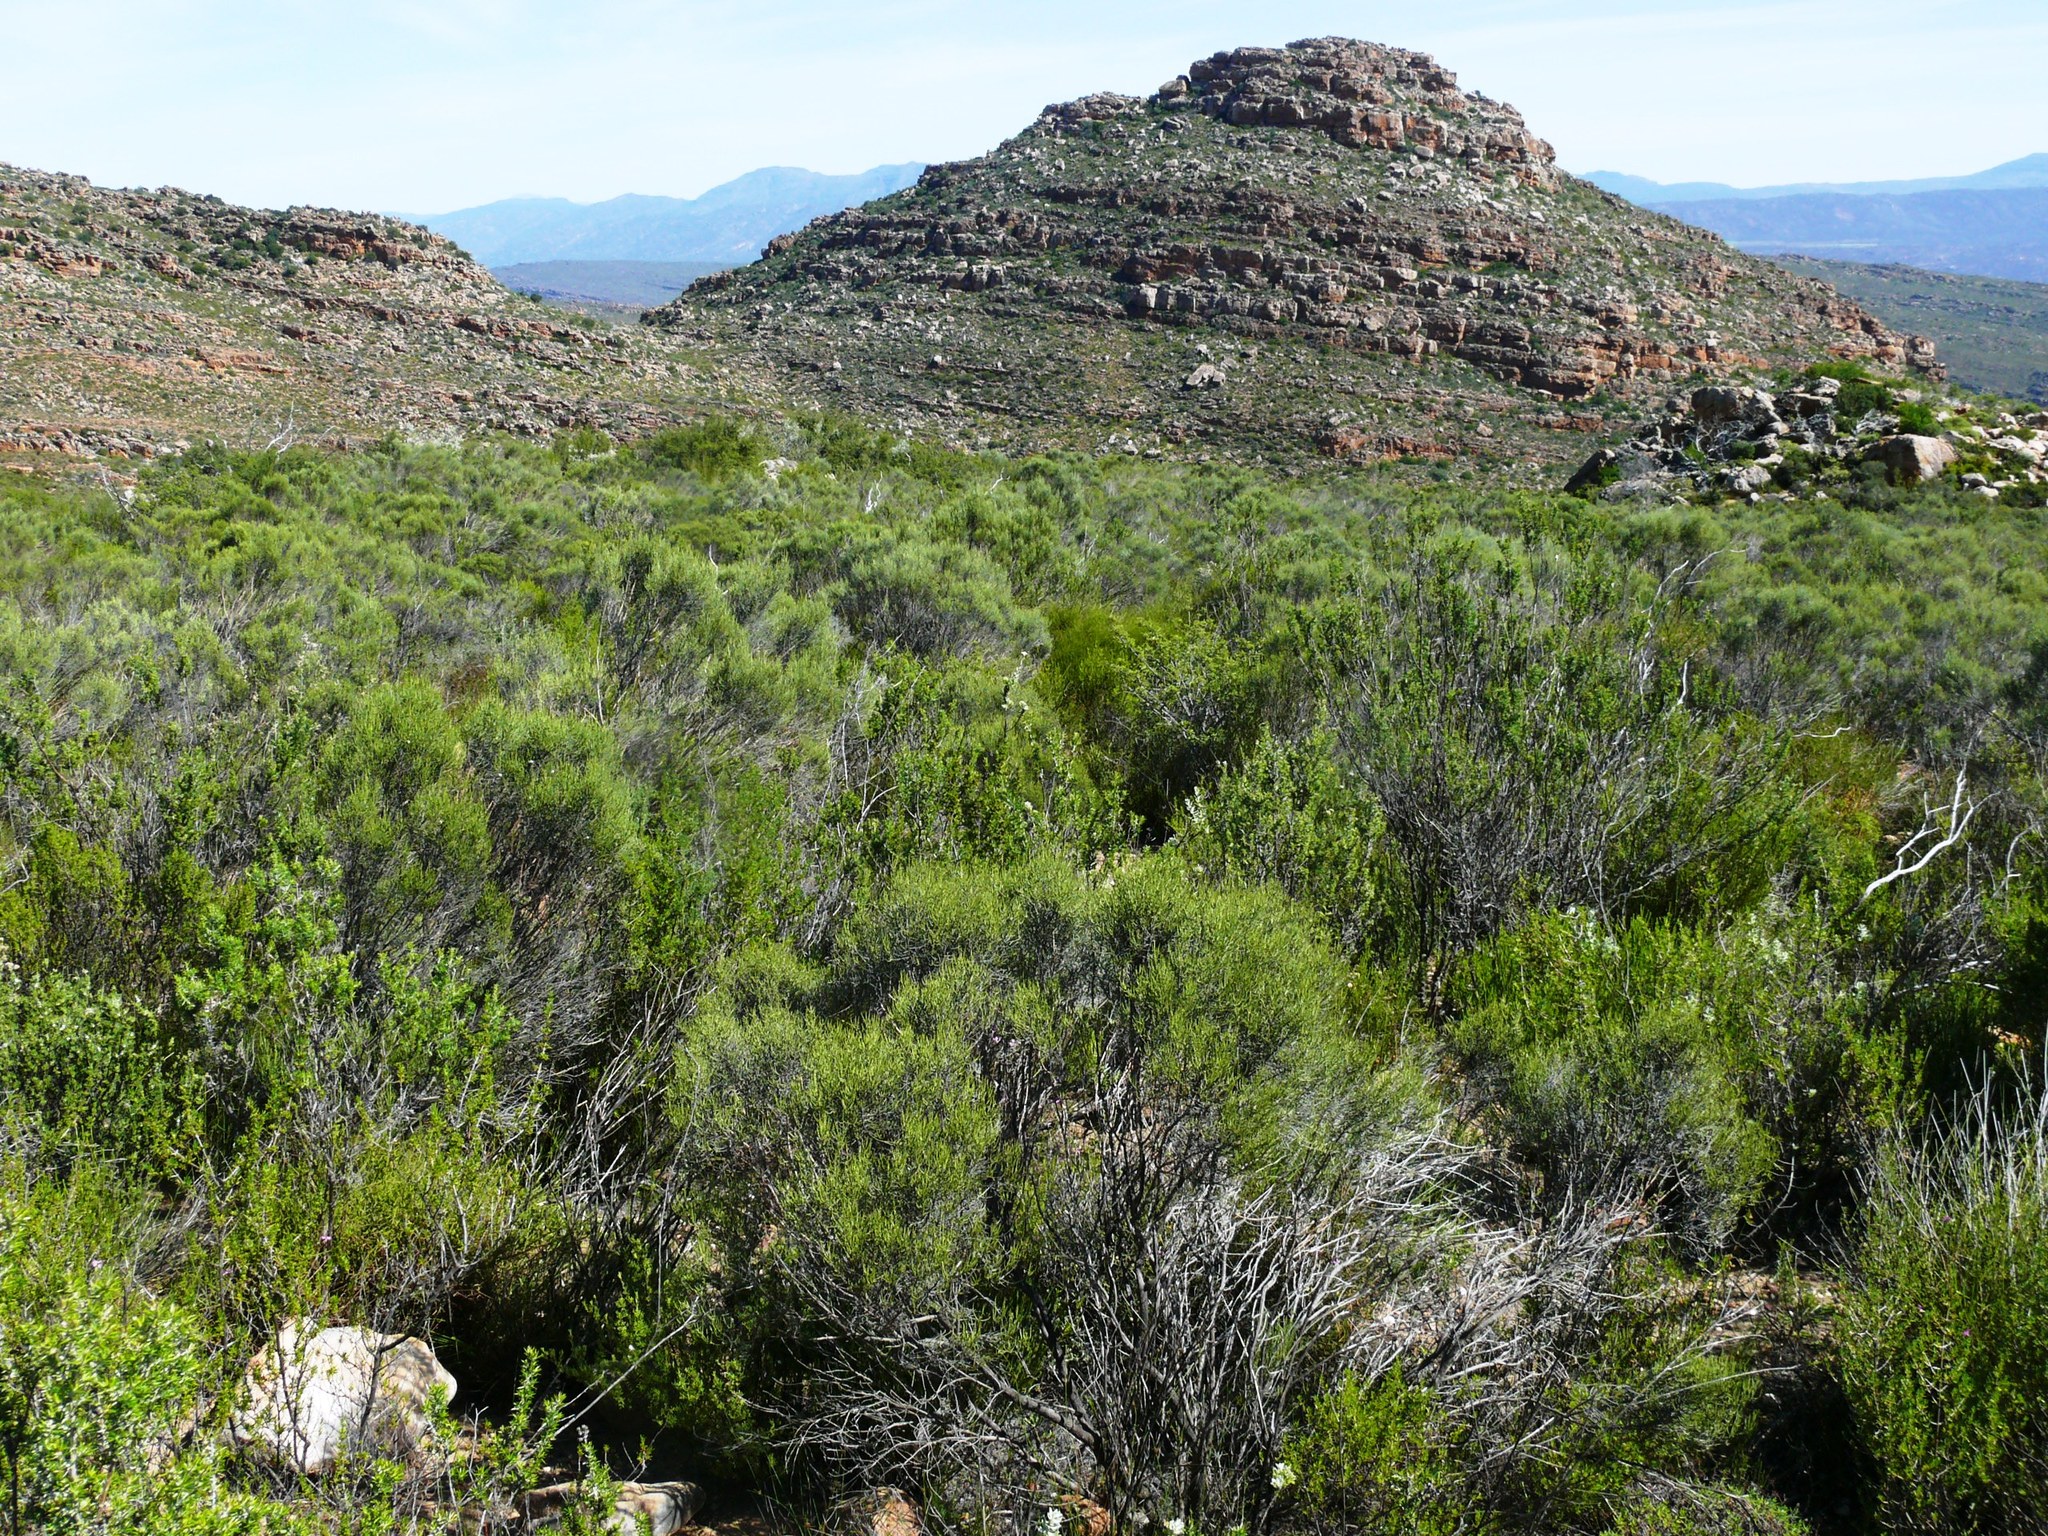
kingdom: Plantae
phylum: Tracheophyta
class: Magnoliopsida
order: Asterales
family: Asteraceae
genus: Dicerothamnus
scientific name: Dicerothamnus rhinocerotis
